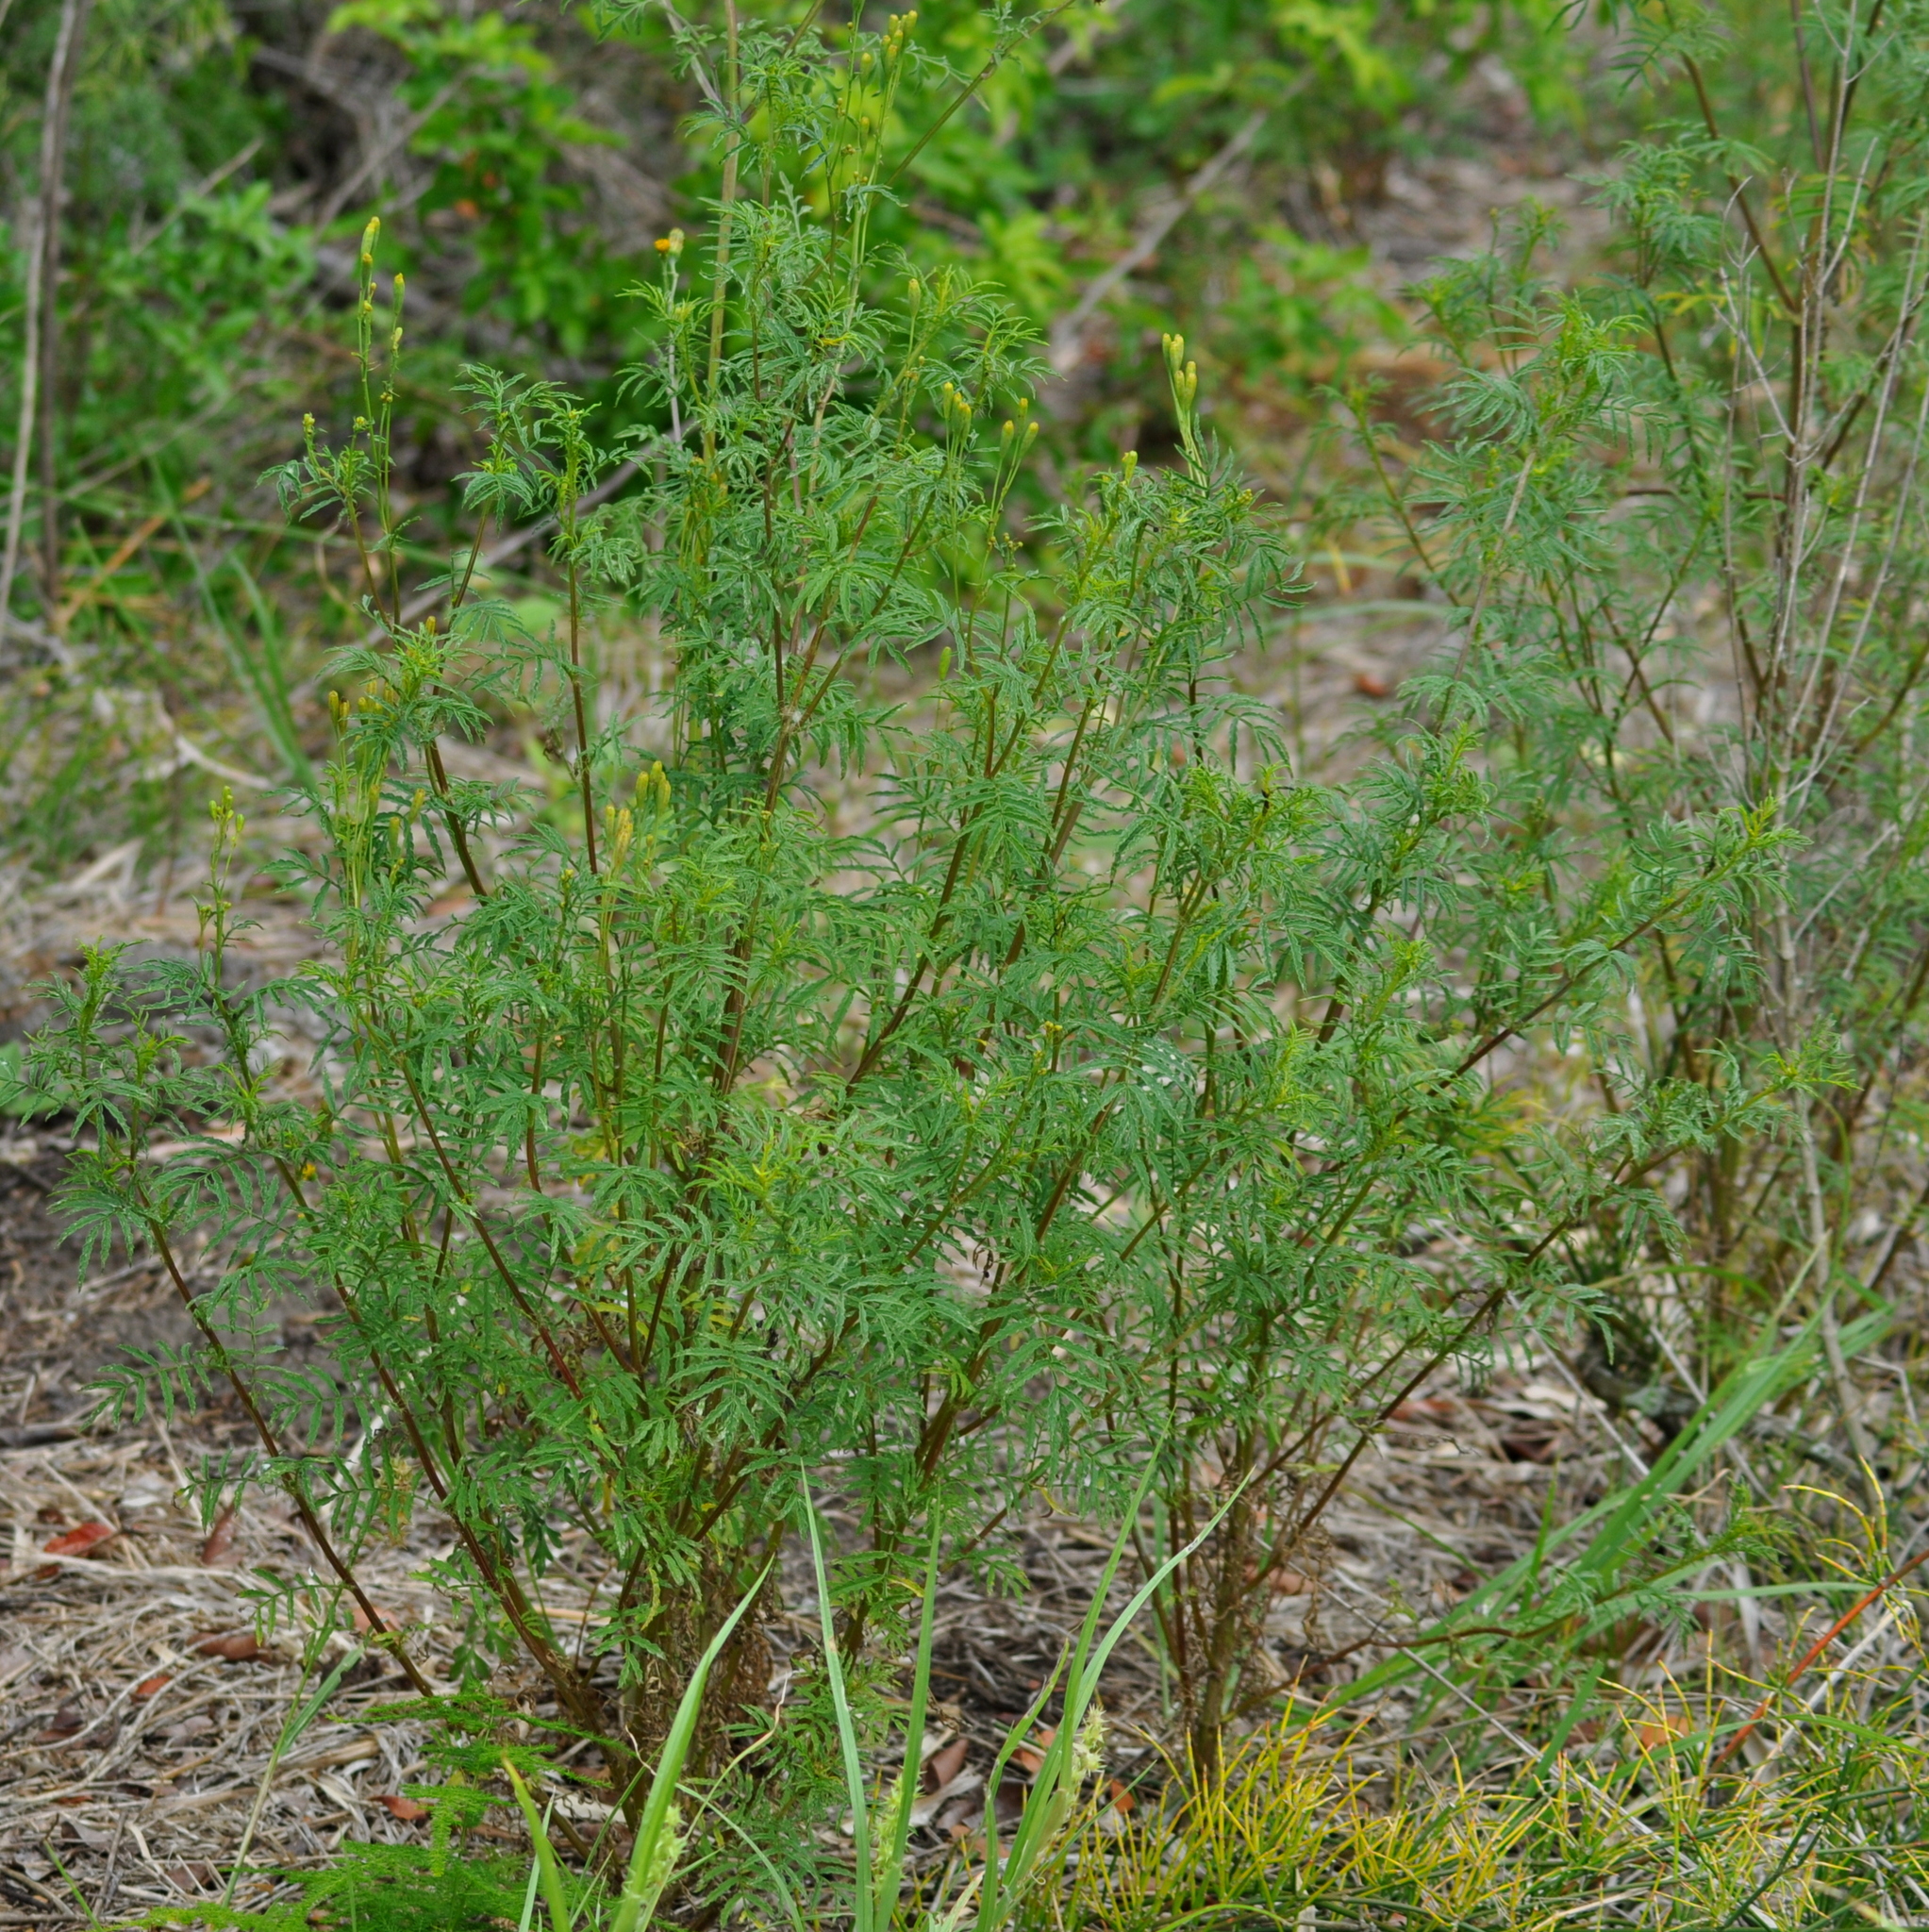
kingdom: Plantae
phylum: Tracheophyta
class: Magnoliopsida
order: Asterales
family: Asteraceae
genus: Tagetes
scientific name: Tagetes ostenii
